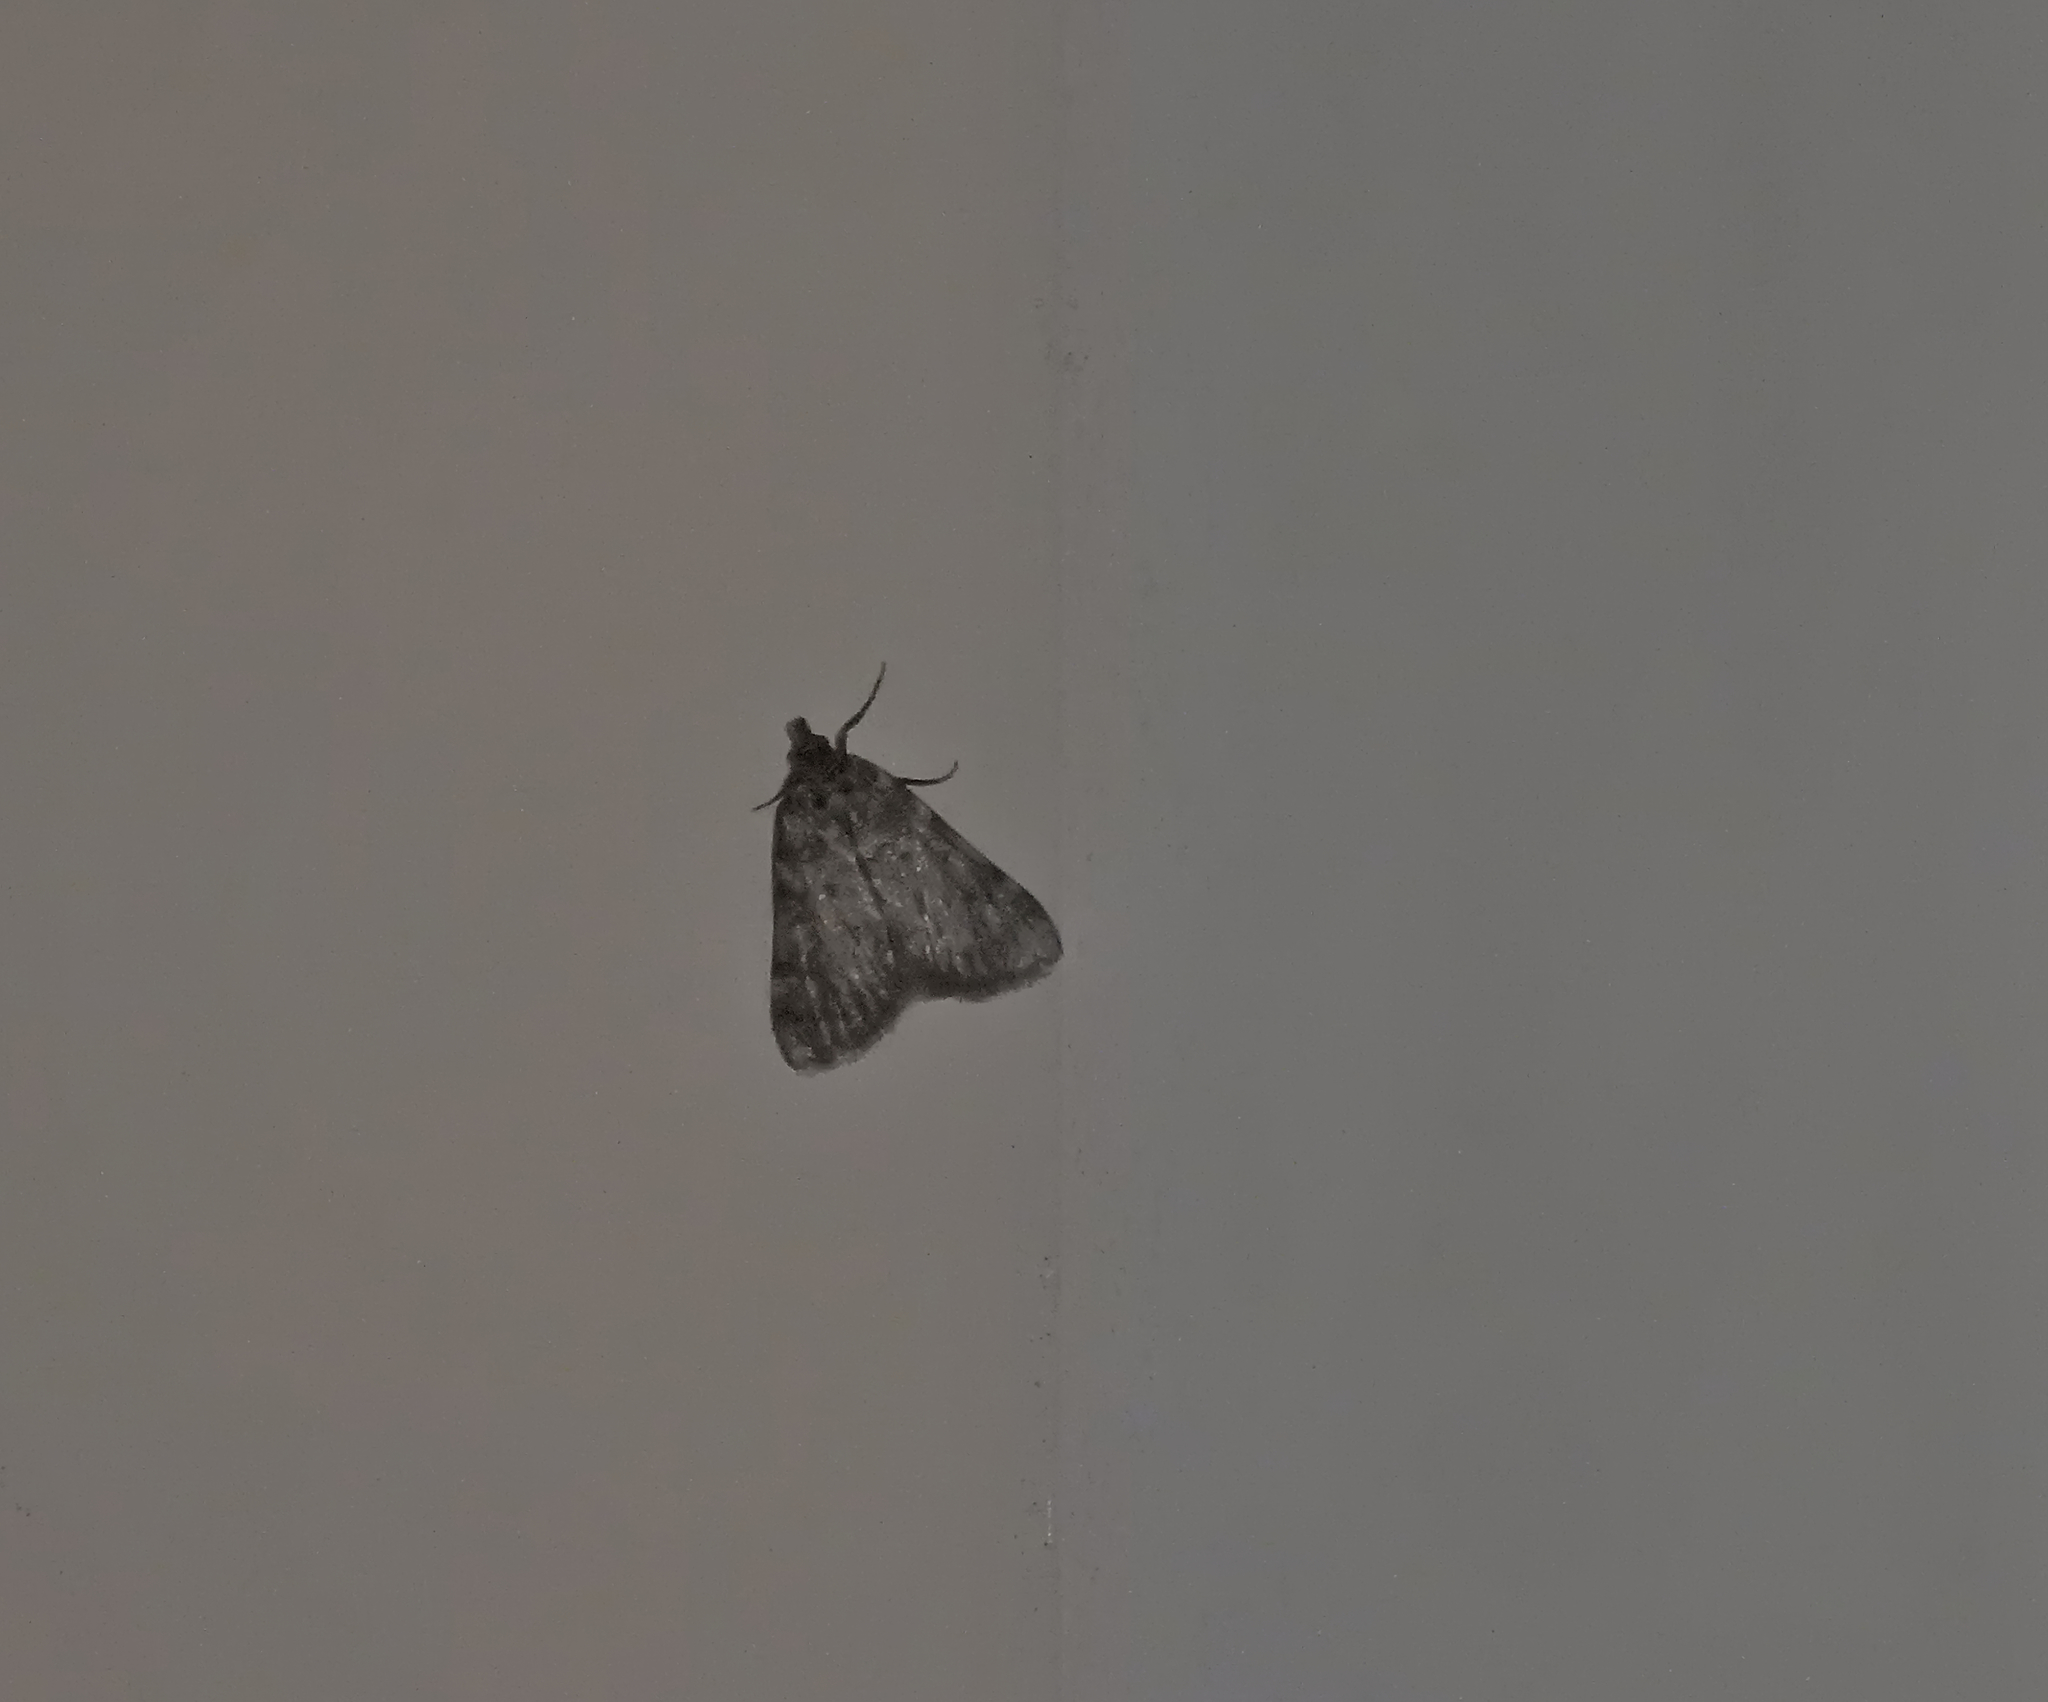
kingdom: Animalia
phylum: Arthropoda
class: Insecta
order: Lepidoptera
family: Pyralidae
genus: Aglossa
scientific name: Aglossa pinguinalis
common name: Large tabby
